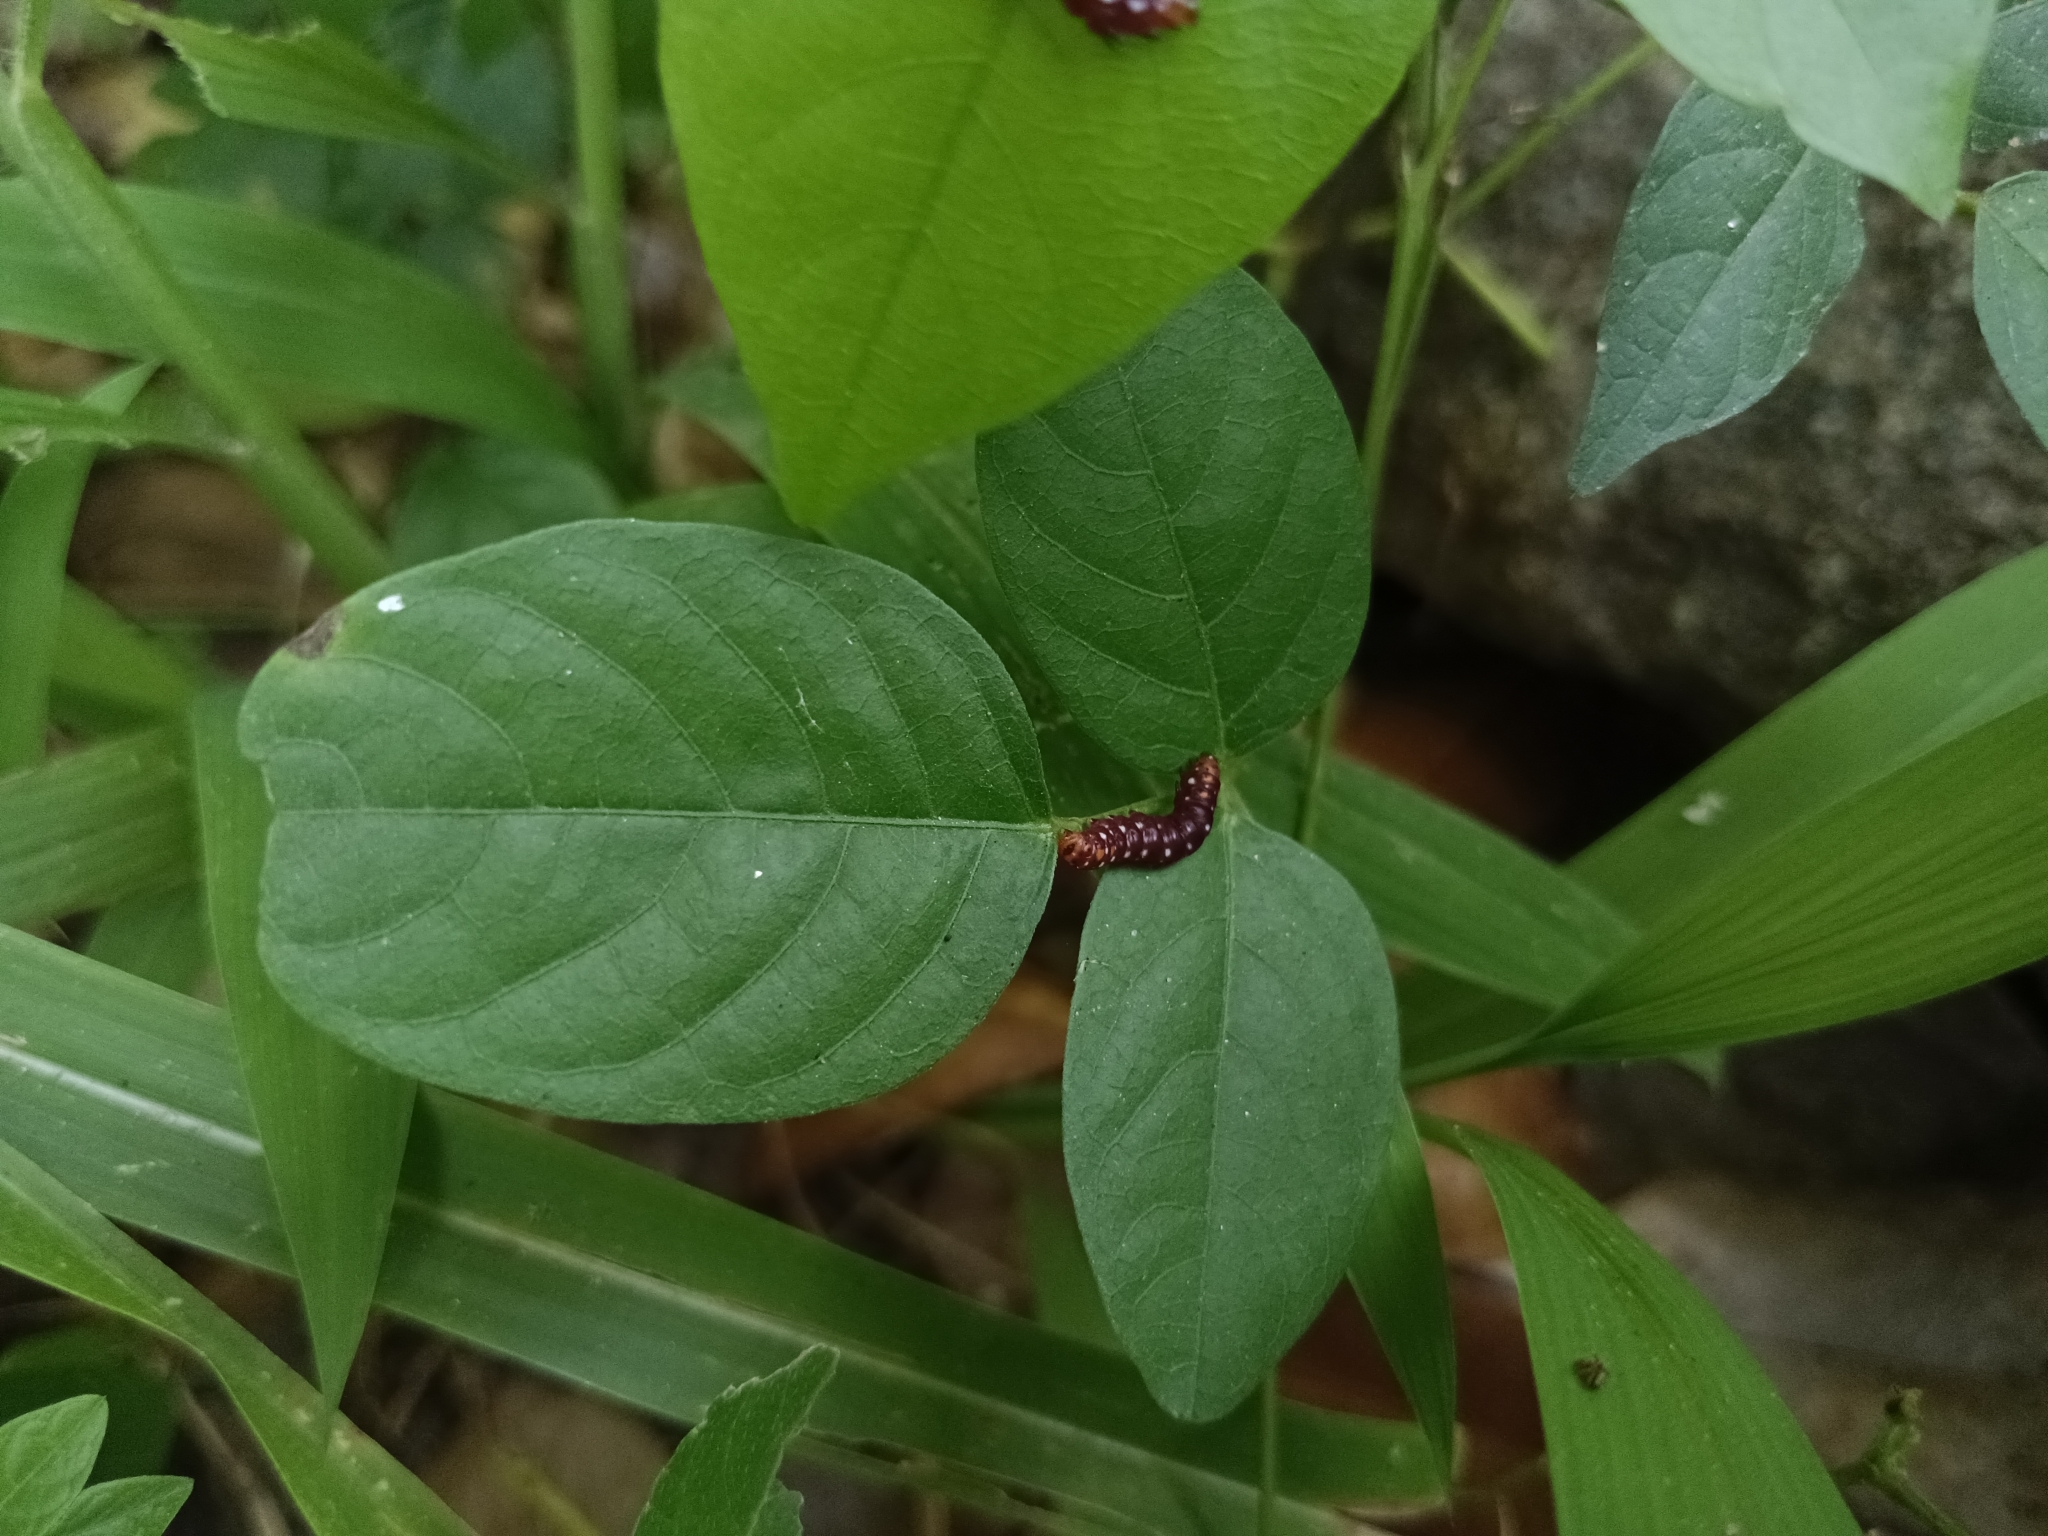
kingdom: Animalia
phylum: Arthropoda
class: Insecta
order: Lepidoptera
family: Noctuidae
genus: Polytela
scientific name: Polytela gloriosae
